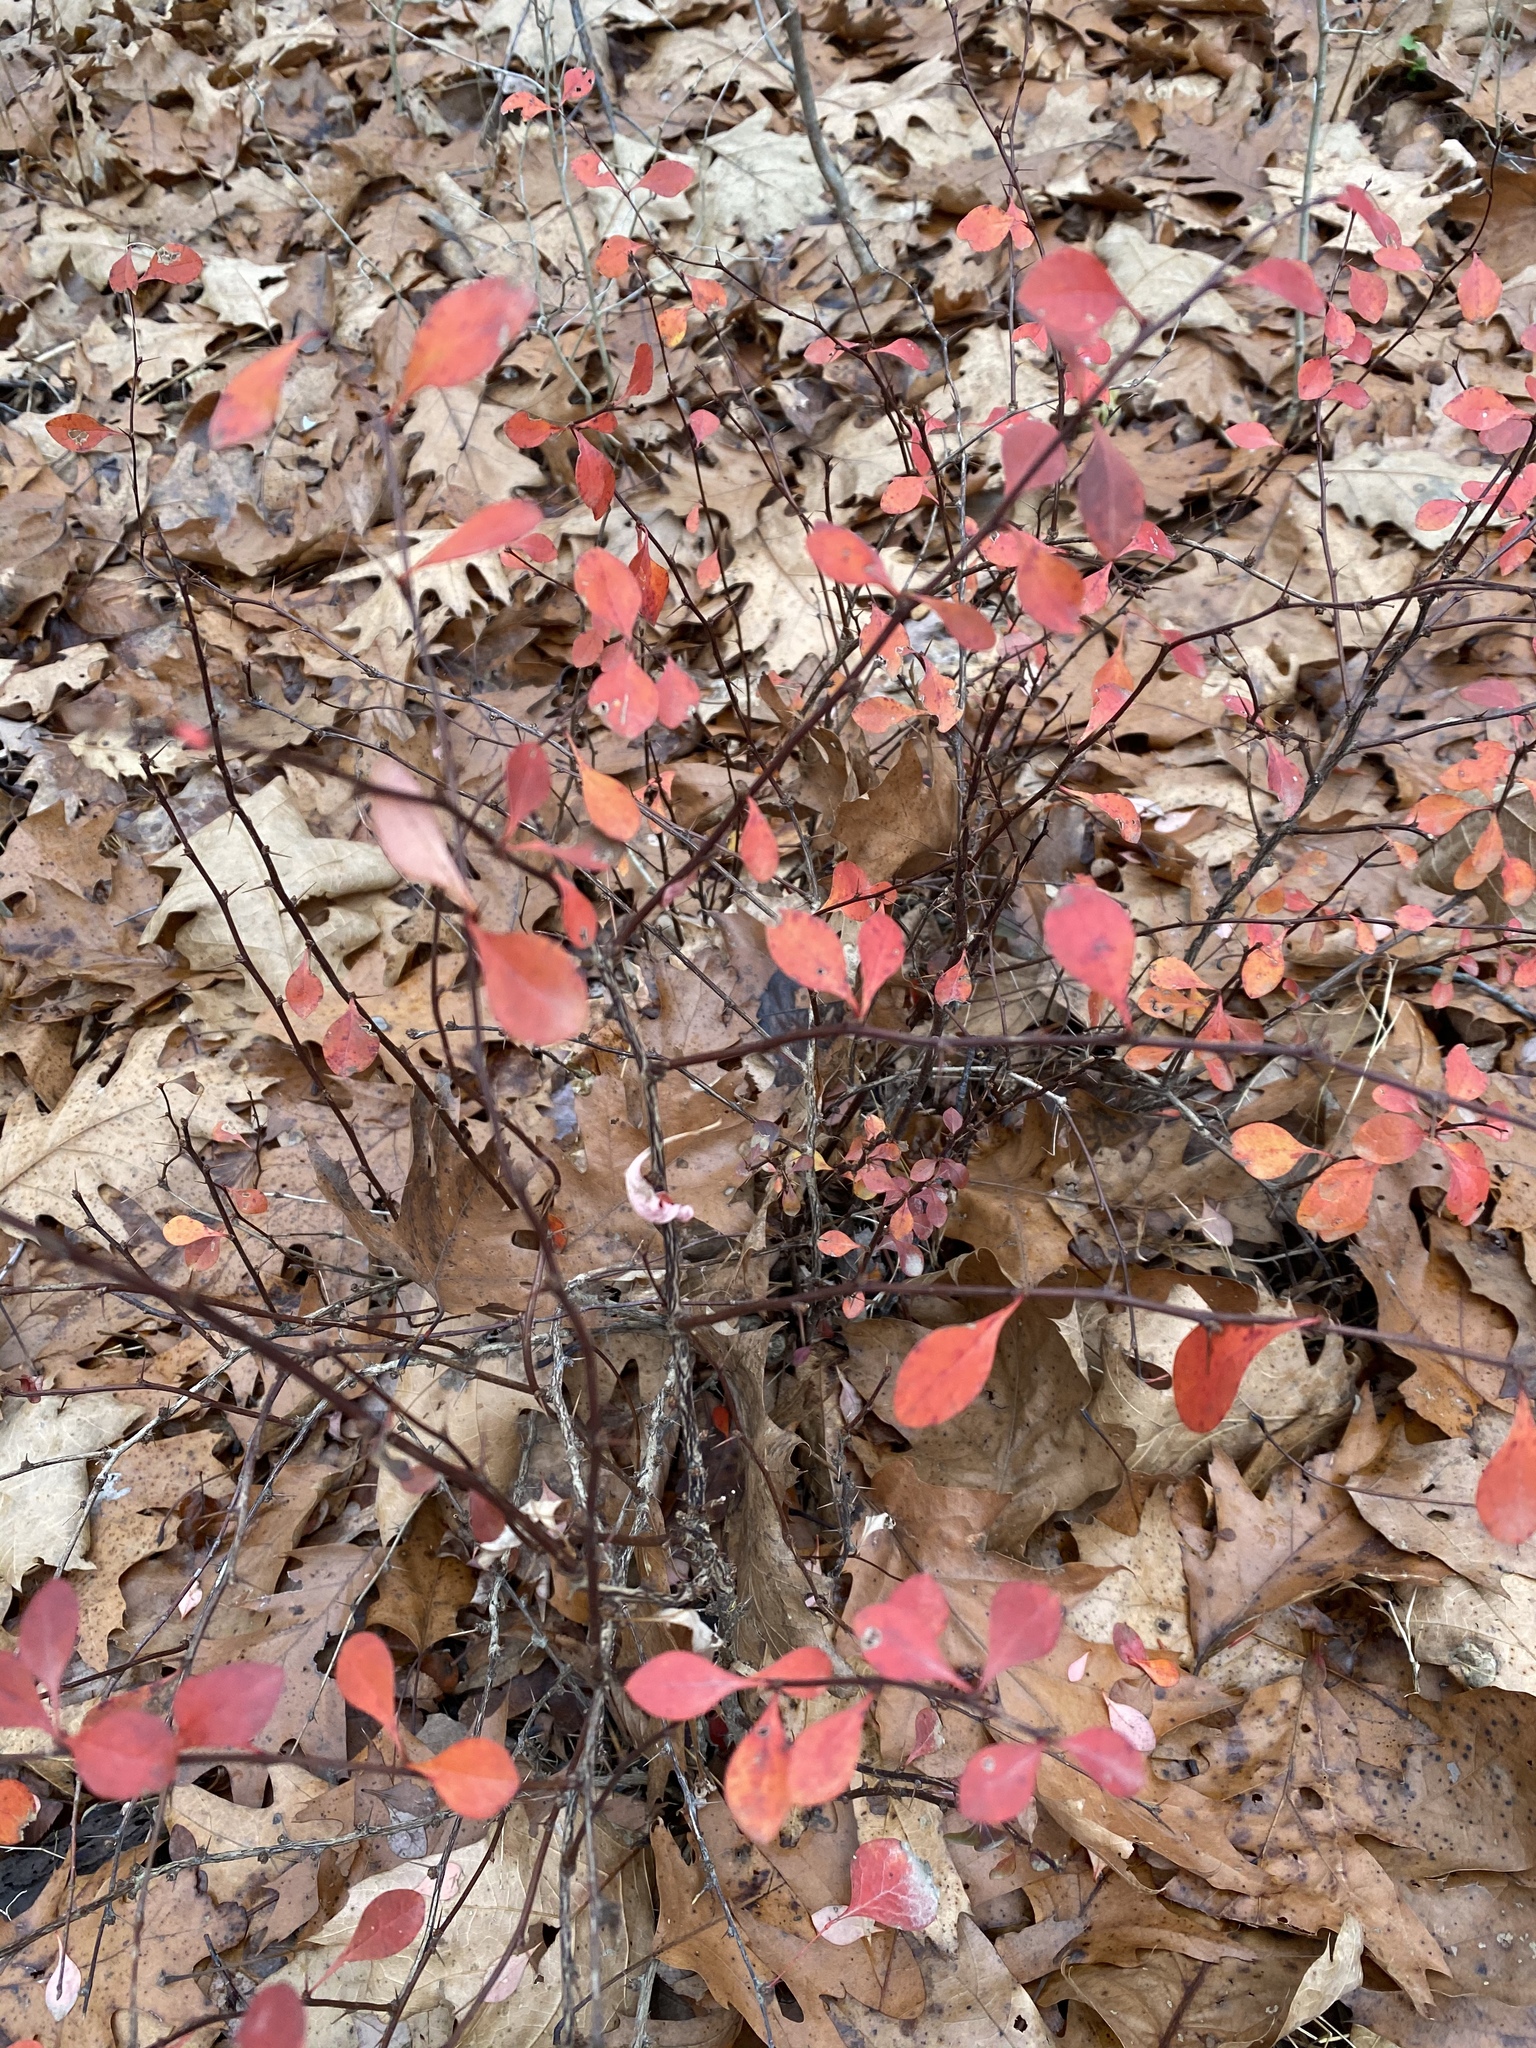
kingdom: Plantae
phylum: Tracheophyta
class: Magnoliopsida
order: Ranunculales
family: Berberidaceae
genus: Berberis
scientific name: Berberis thunbergii
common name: Japanese barberry
